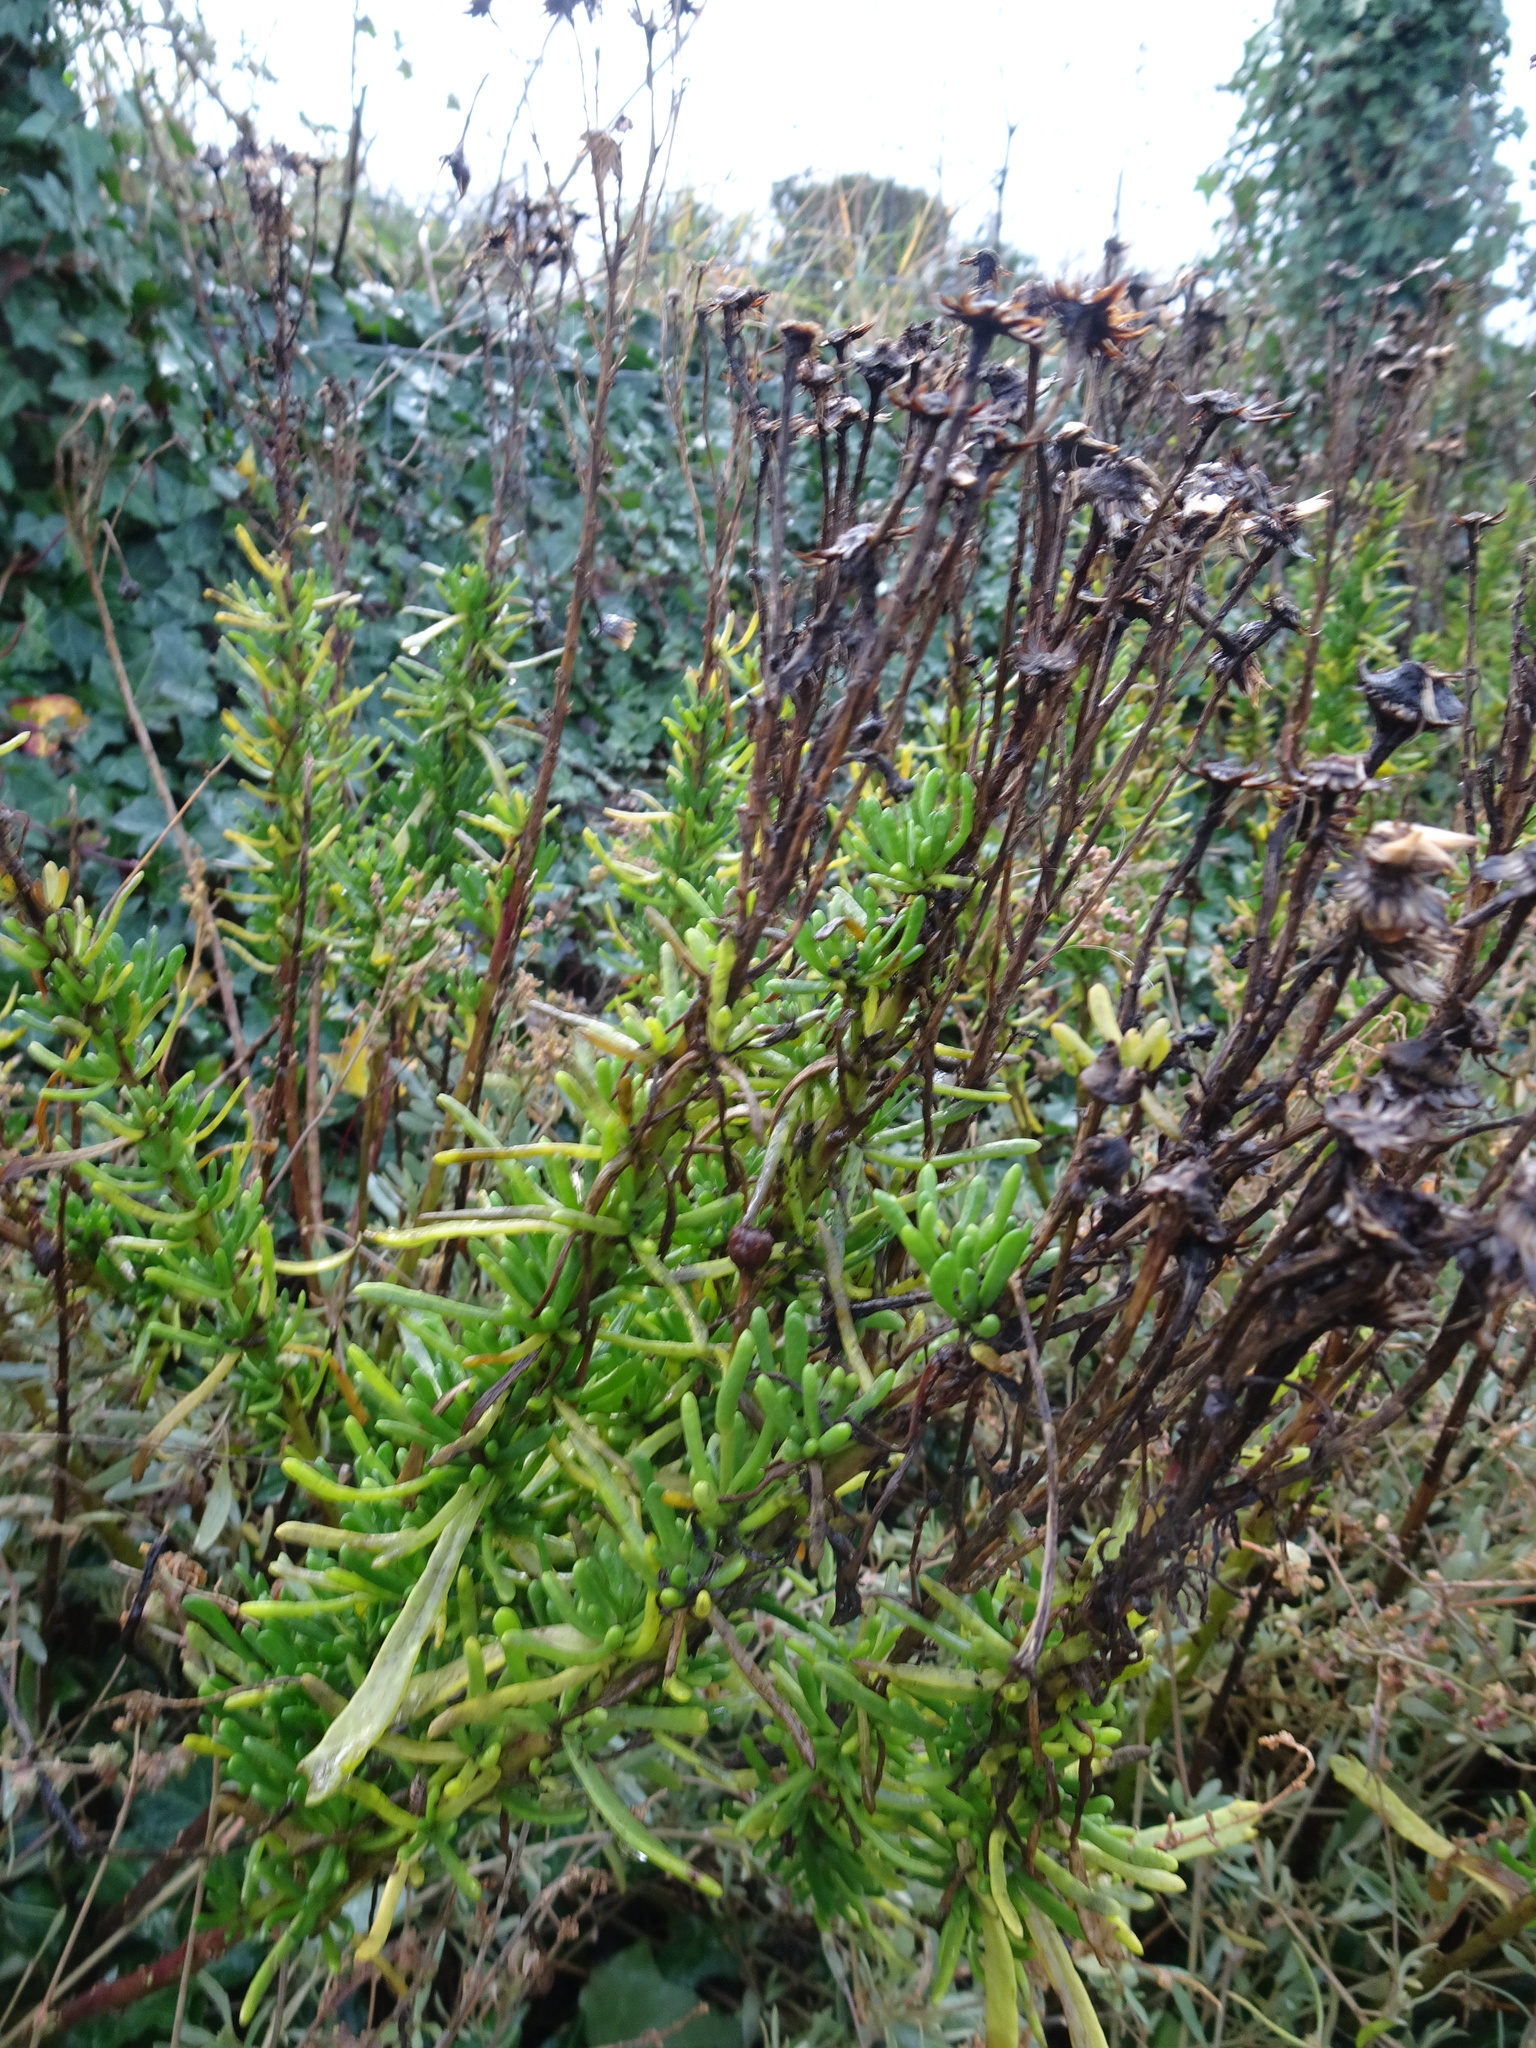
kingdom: Plantae
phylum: Tracheophyta
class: Magnoliopsida
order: Asterales
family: Asteraceae
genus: Limbarda
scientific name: Limbarda crithmoides
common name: Golden samphire
